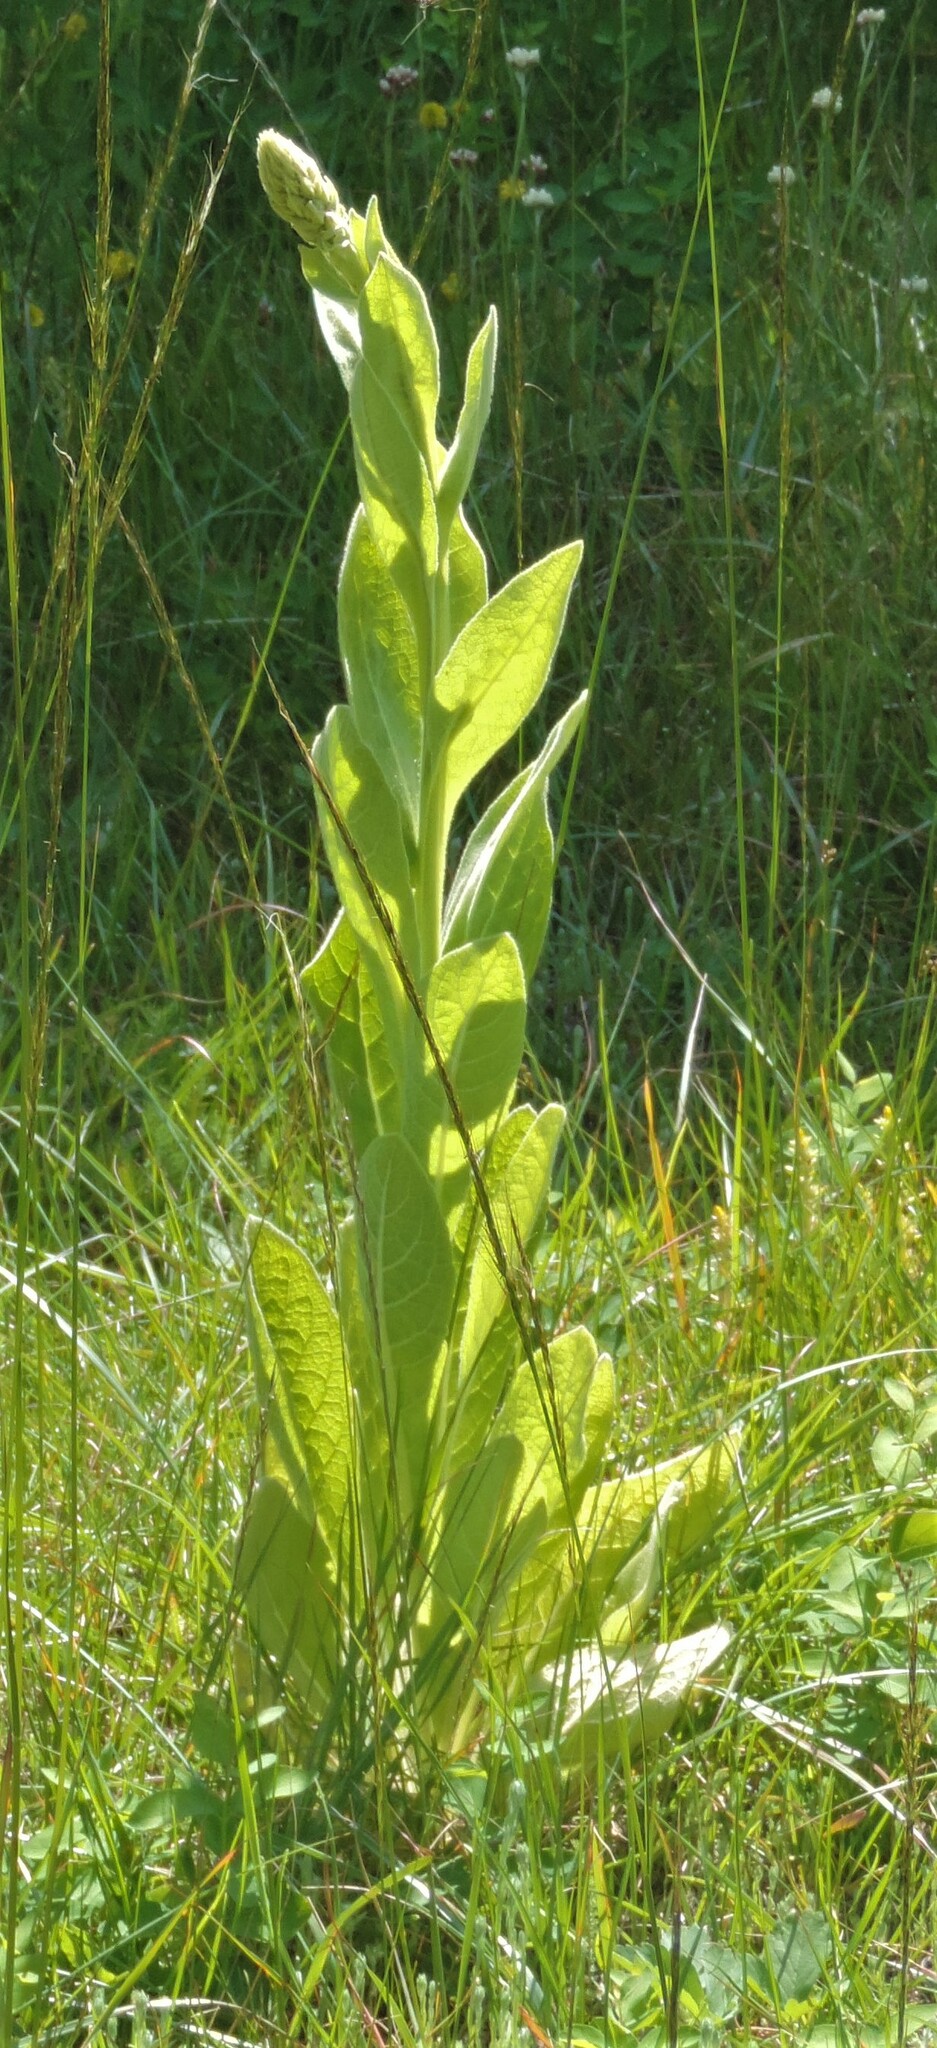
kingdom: Plantae
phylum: Tracheophyta
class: Magnoliopsida
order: Lamiales
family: Scrophulariaceae
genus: Verbascum
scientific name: Verbascum thapsus
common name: Common mullein
